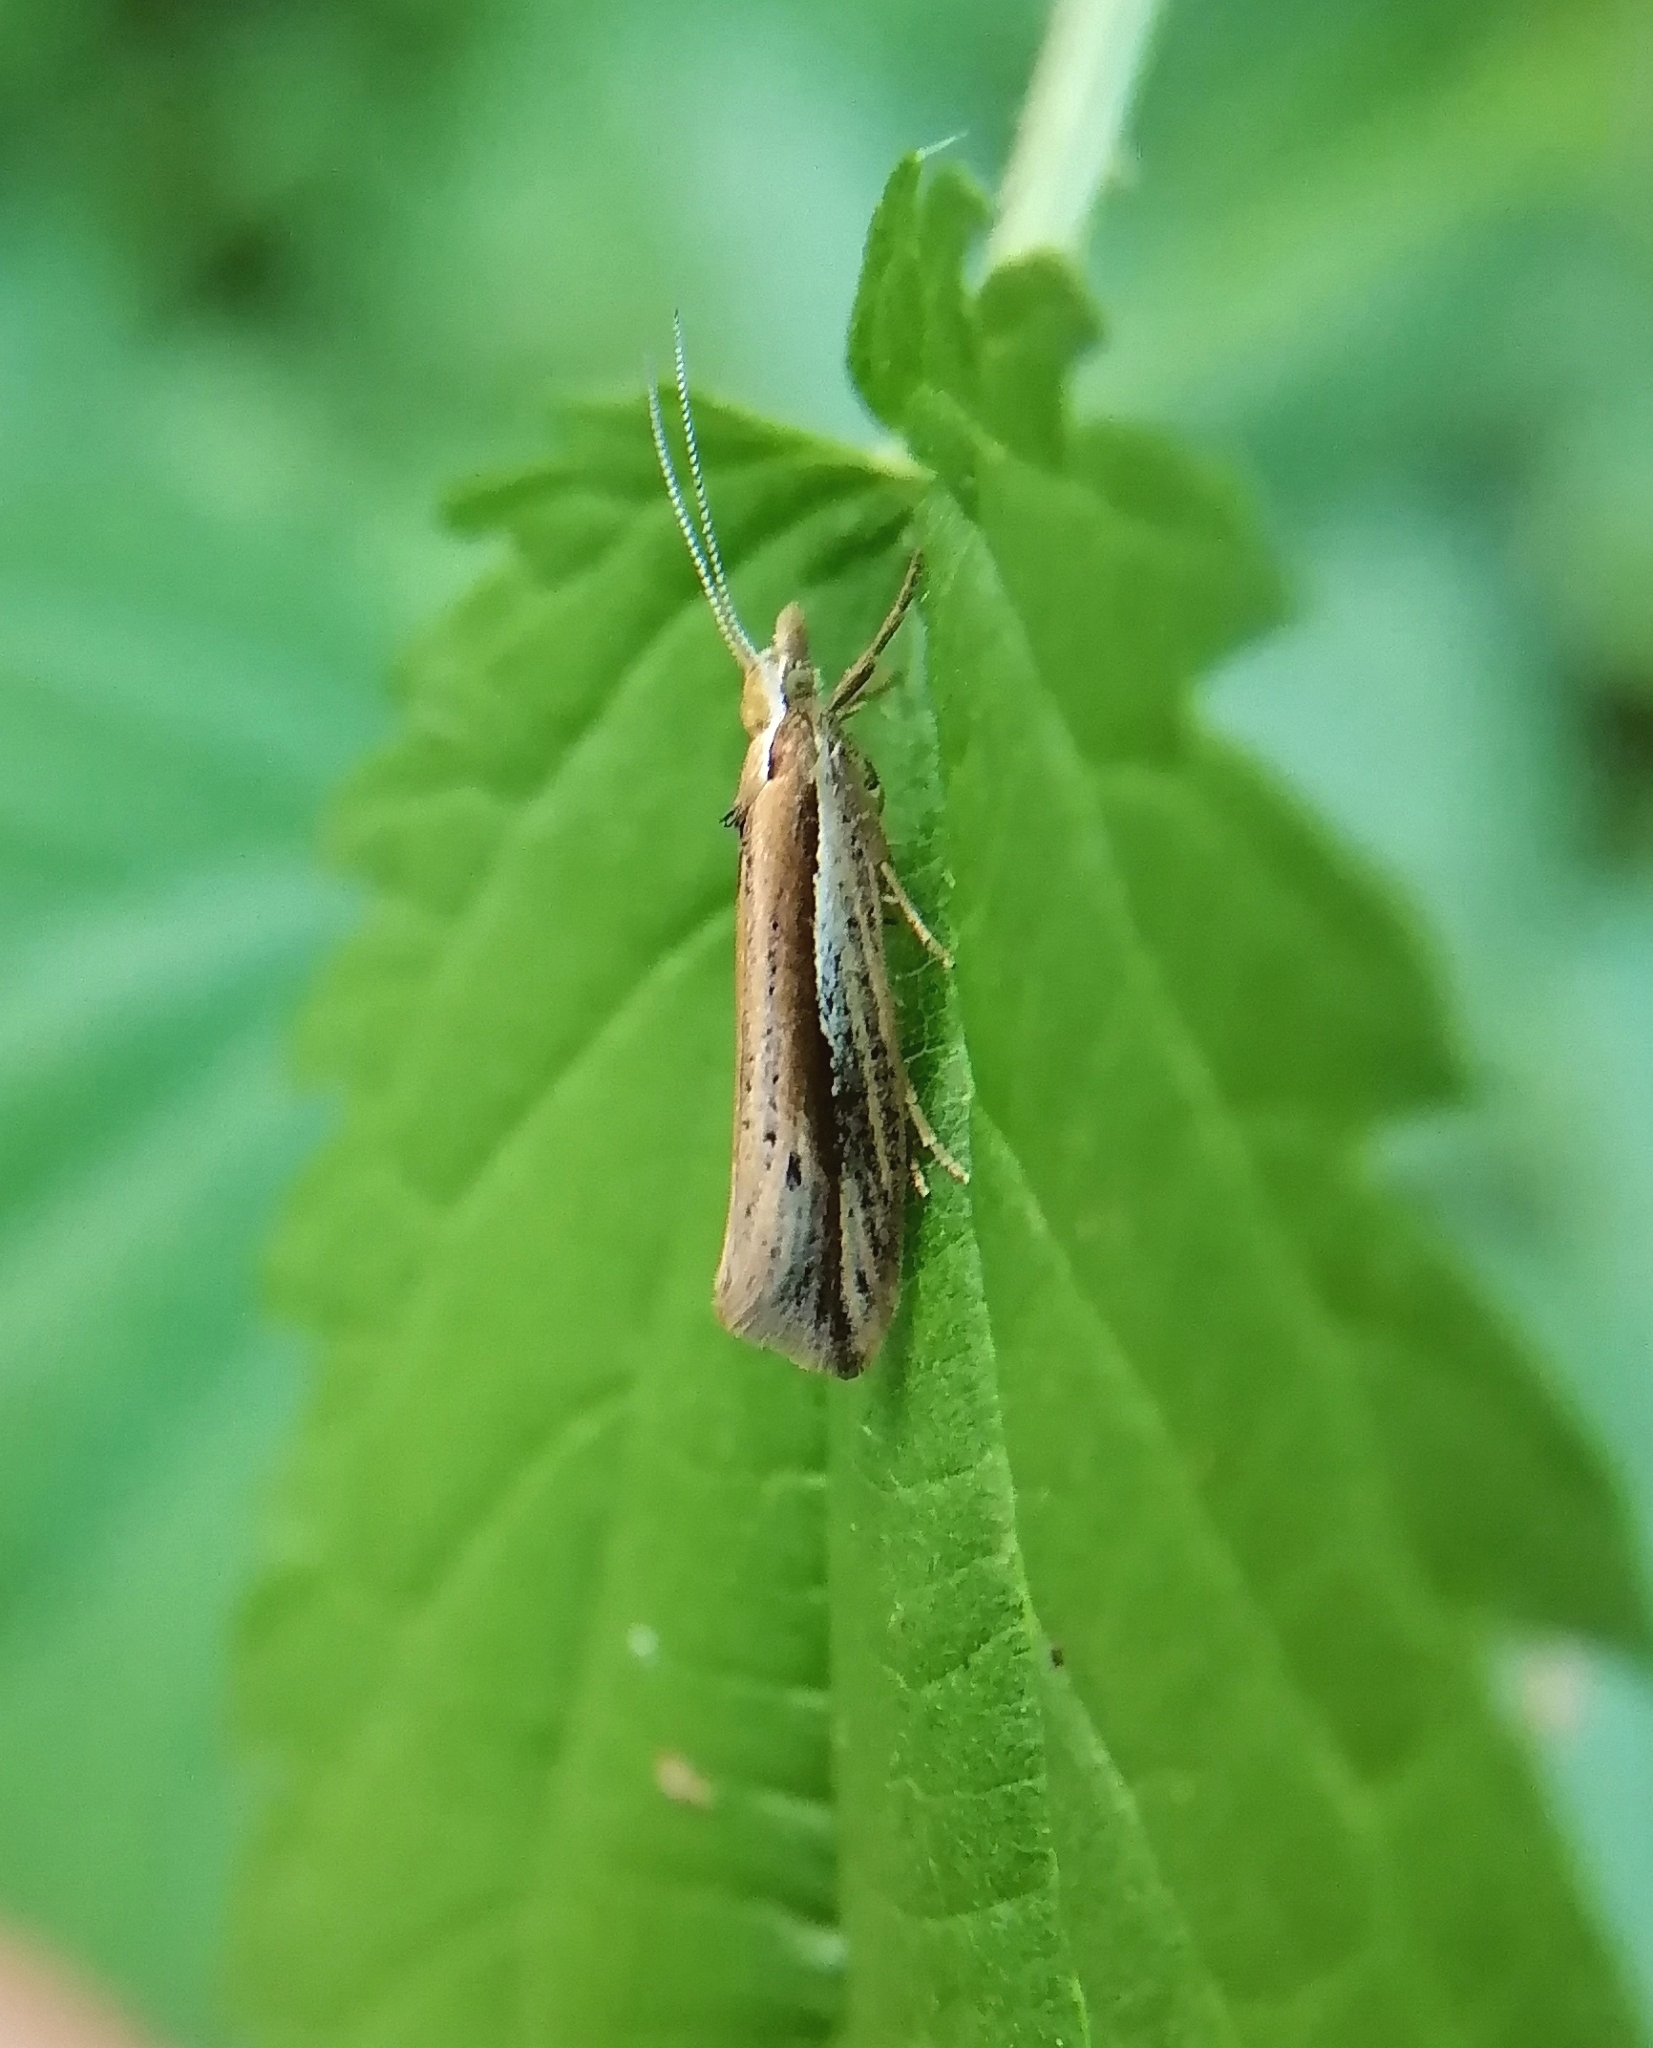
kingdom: Animalia
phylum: Arthropoda
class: Insecta
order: Lepidoptera
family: Ypsolophidae
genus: Ypsolopha
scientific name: Ypsolopha parenthesella
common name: White-shouldered smudge
